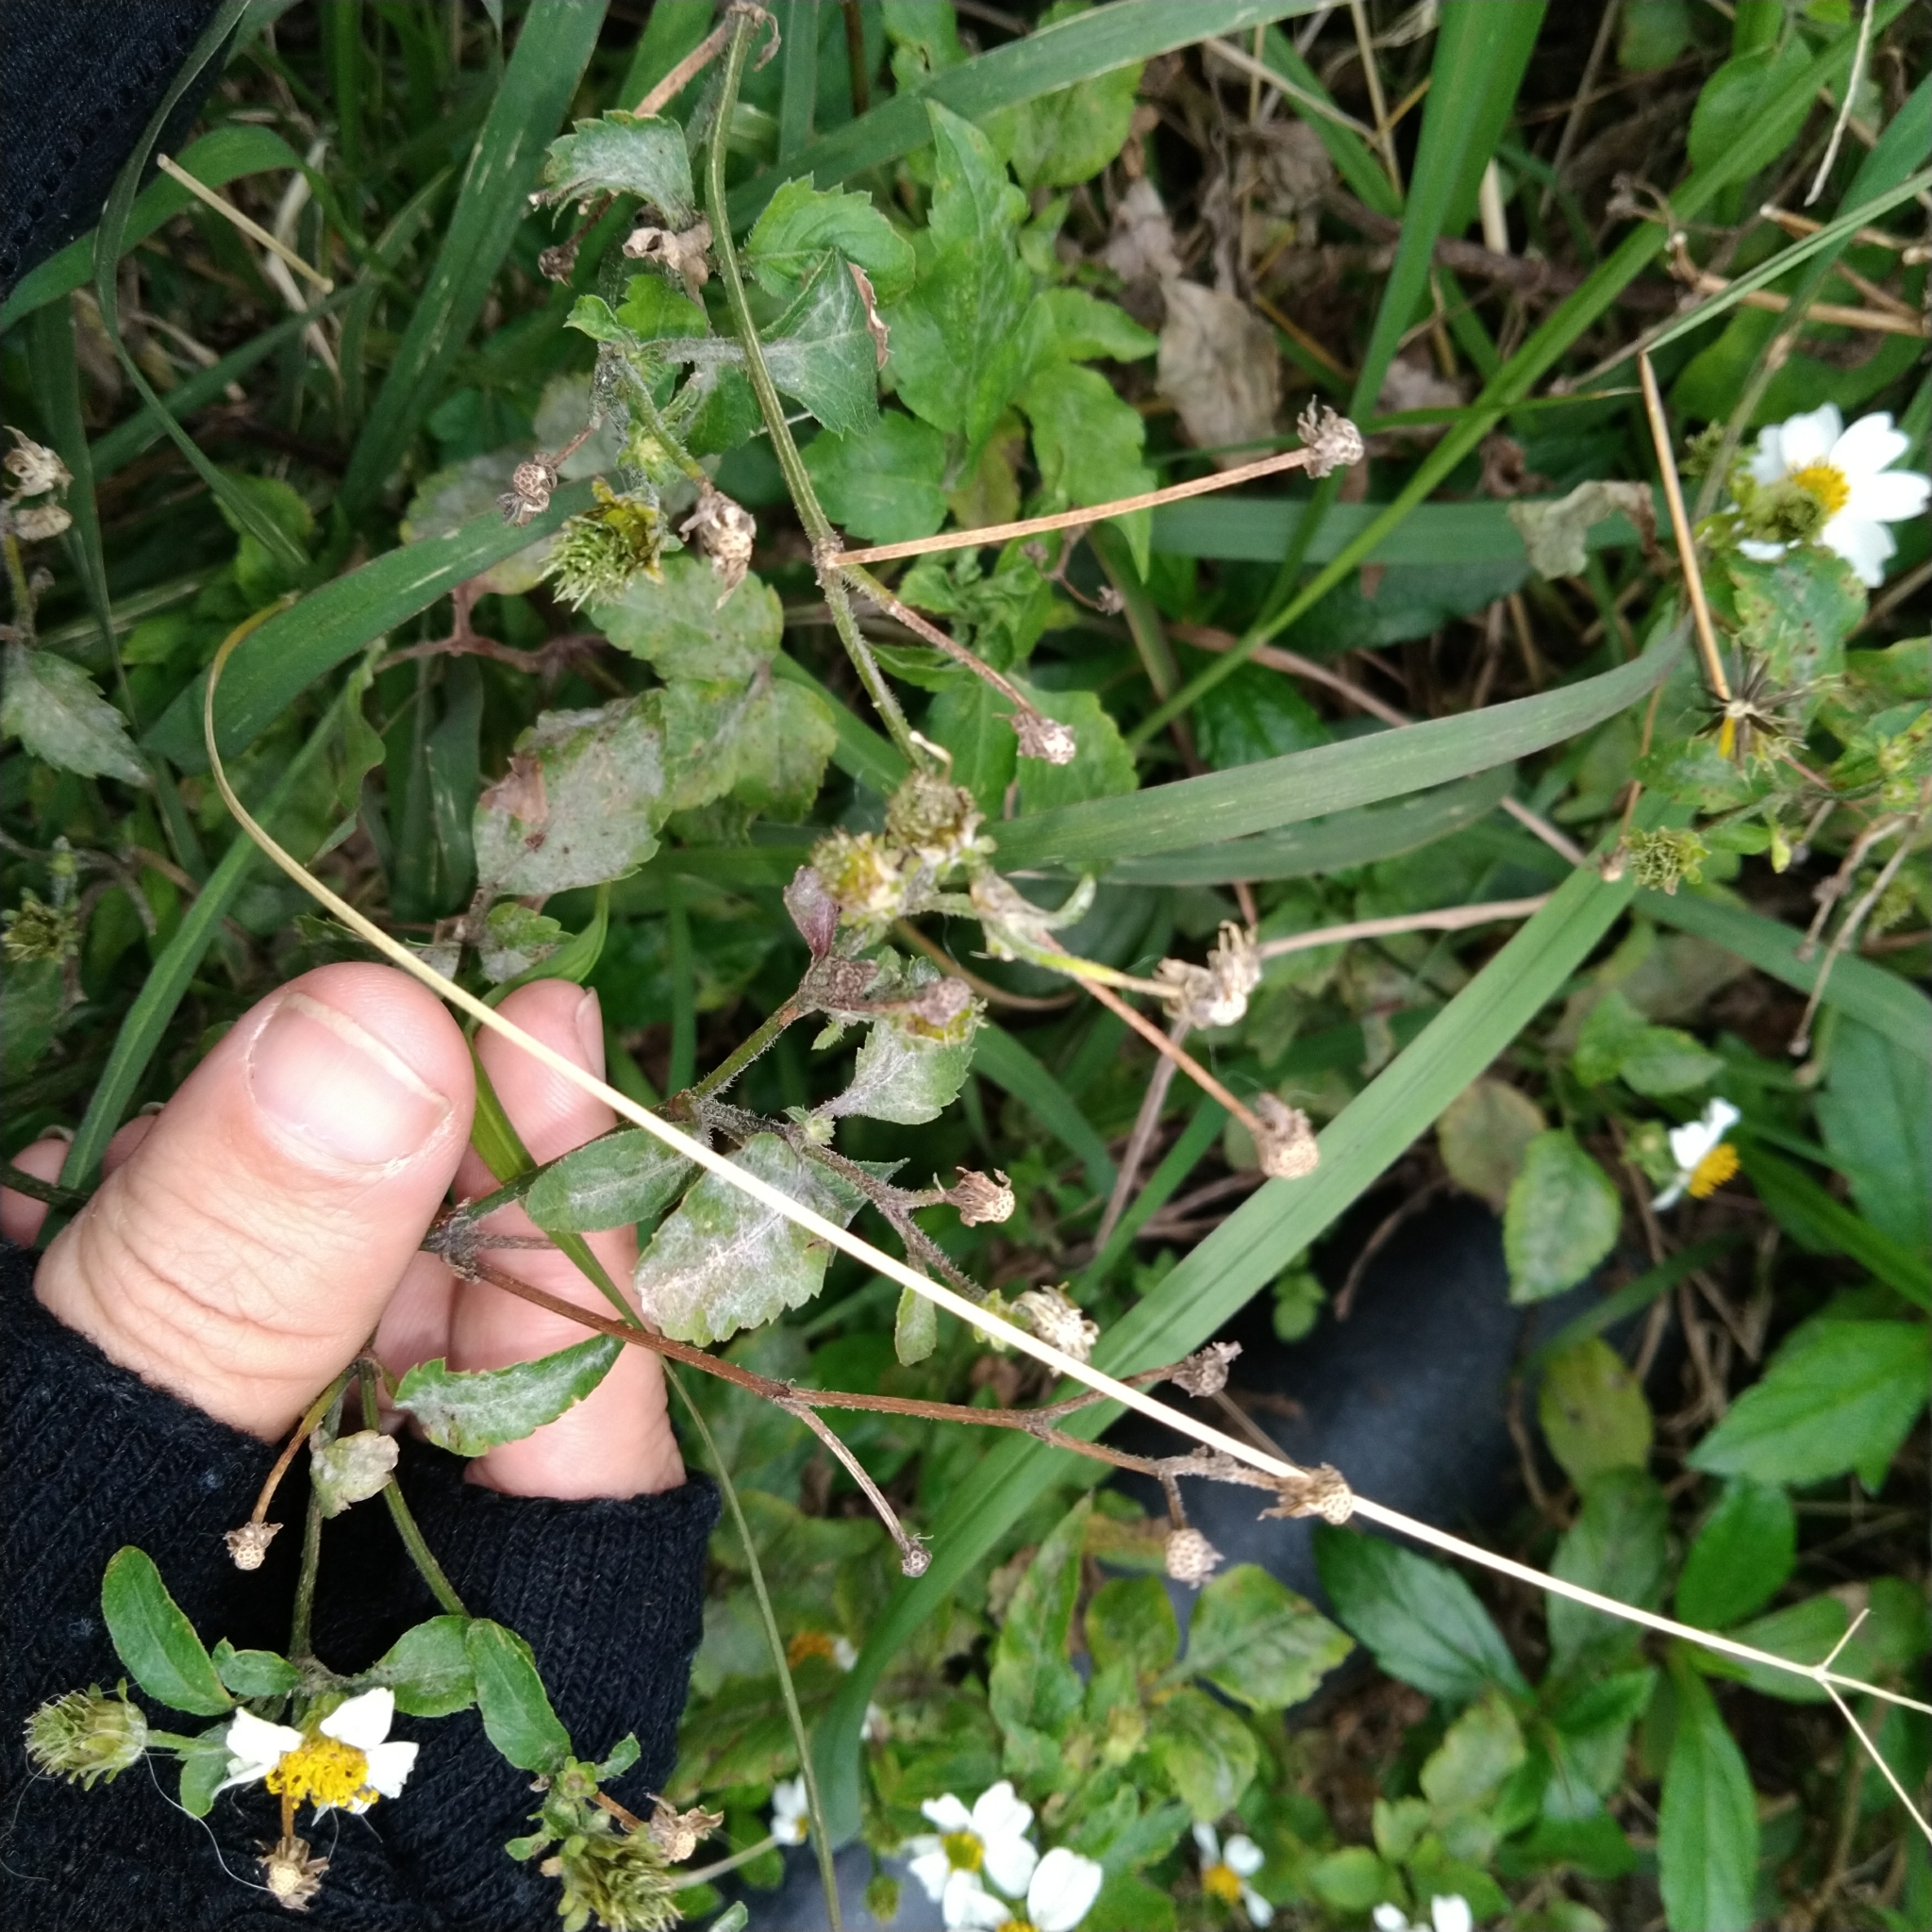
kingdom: Plantae
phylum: Tracheophyta
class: Magnoliopsida
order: Asterales
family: Asteraceae
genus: Bidens
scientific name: Bidens alba
